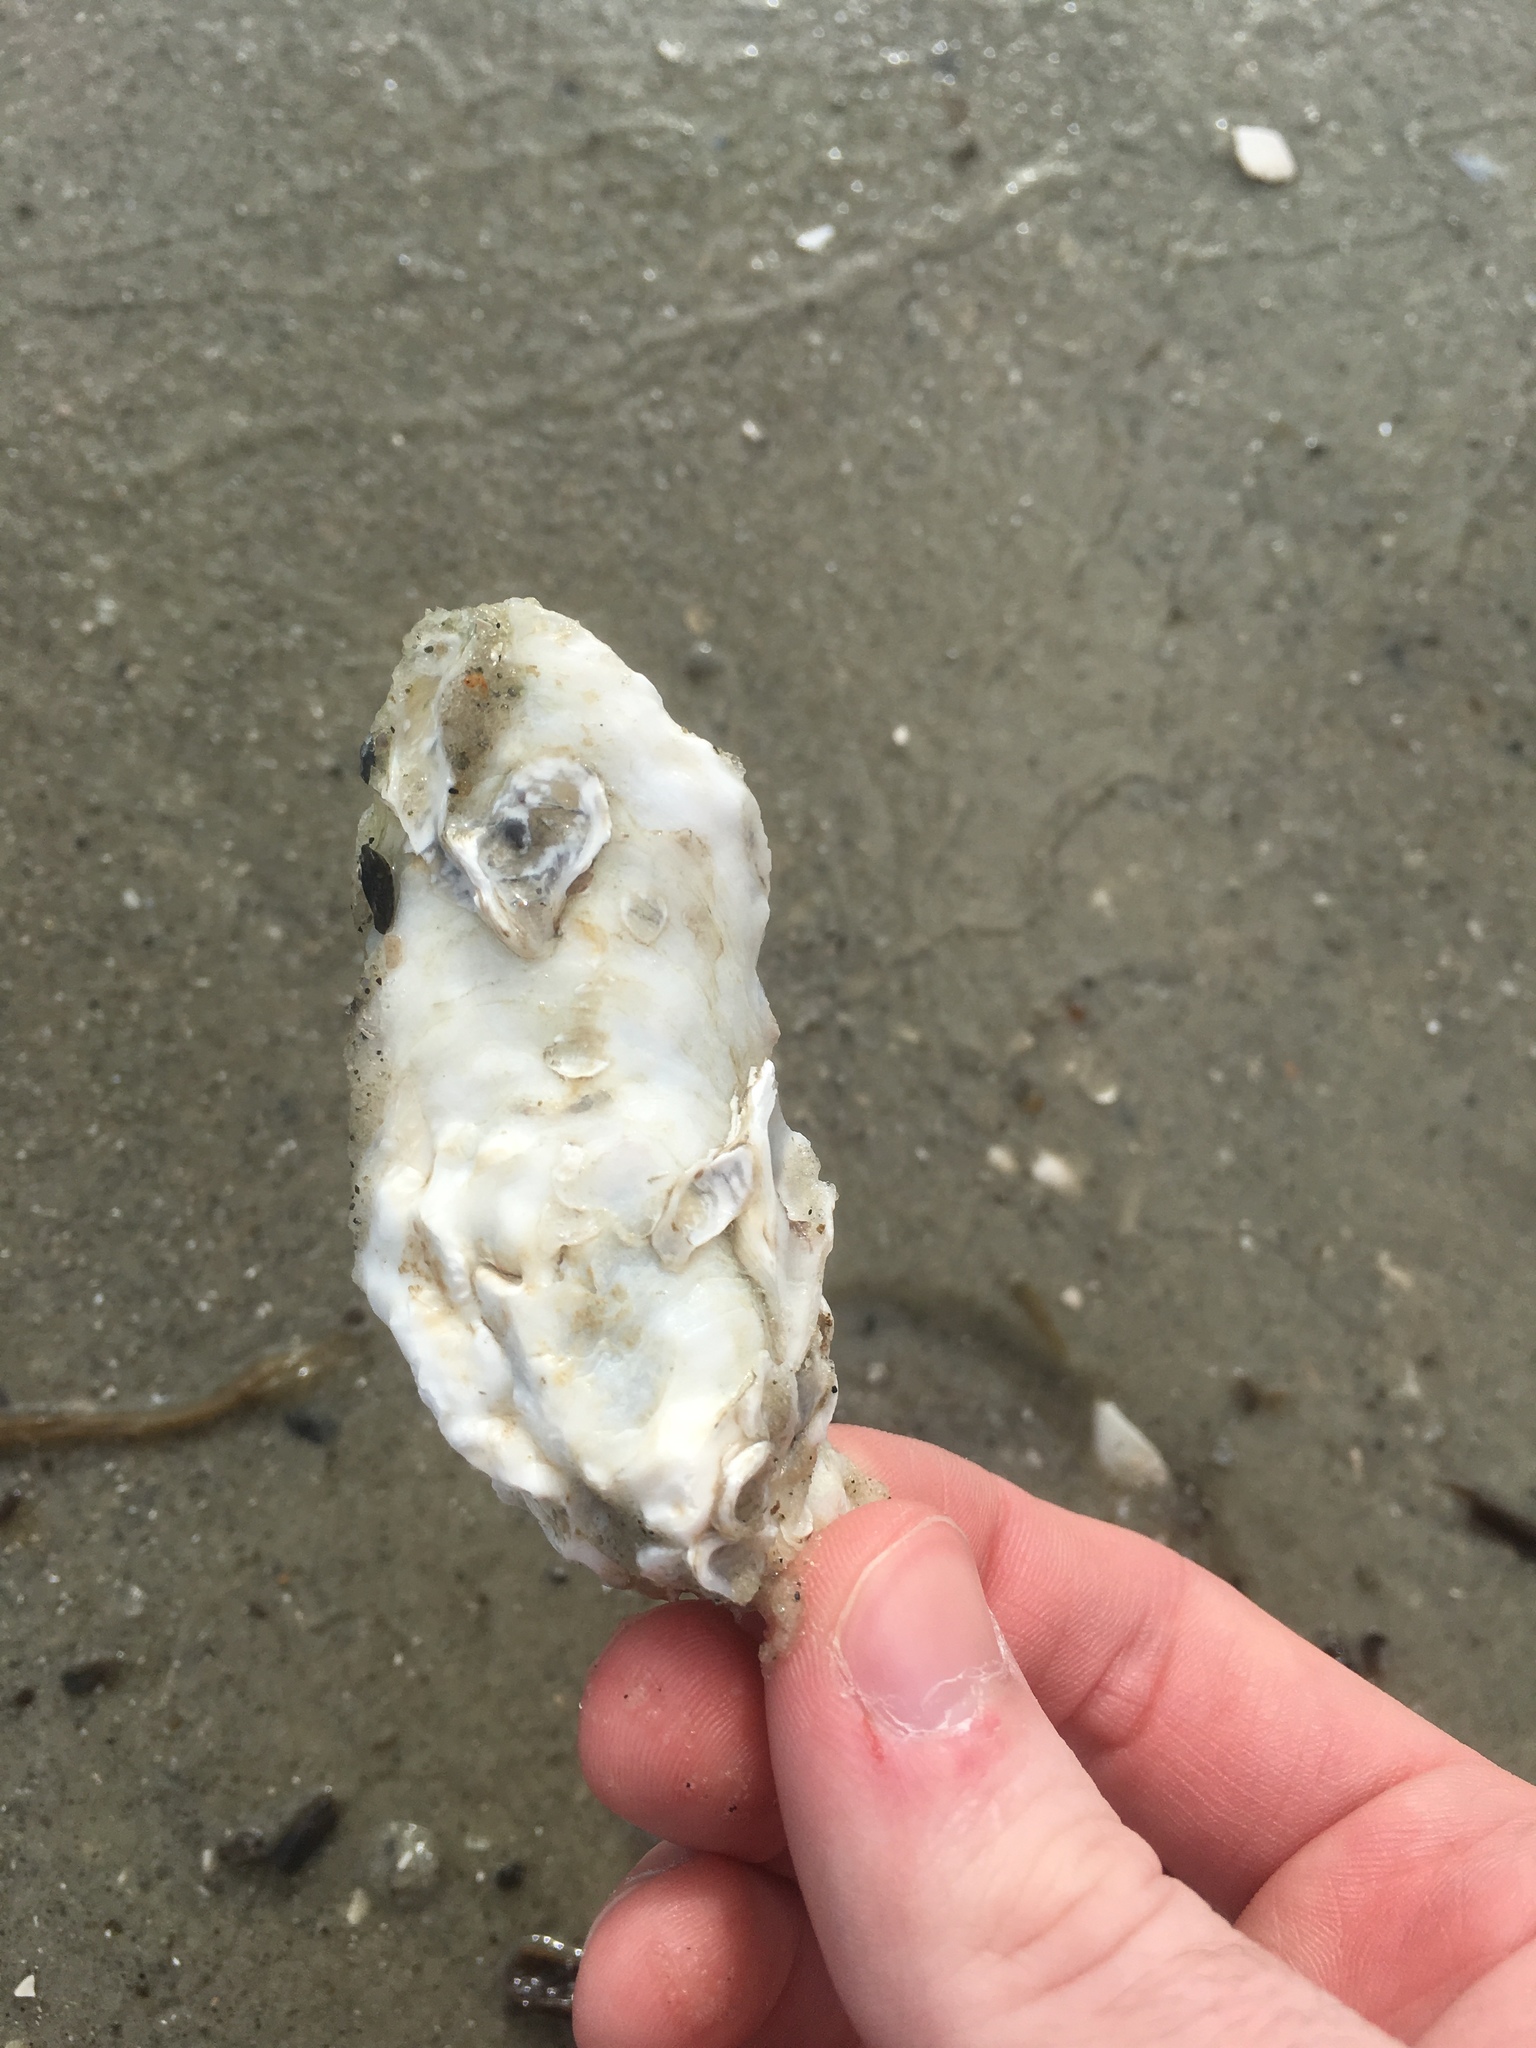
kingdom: Animalia
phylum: Mollusca
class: Bivalvia
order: Ostreida
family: Ostreidae
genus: Crassostrea
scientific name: Crassostrea virginica
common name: American oyster
